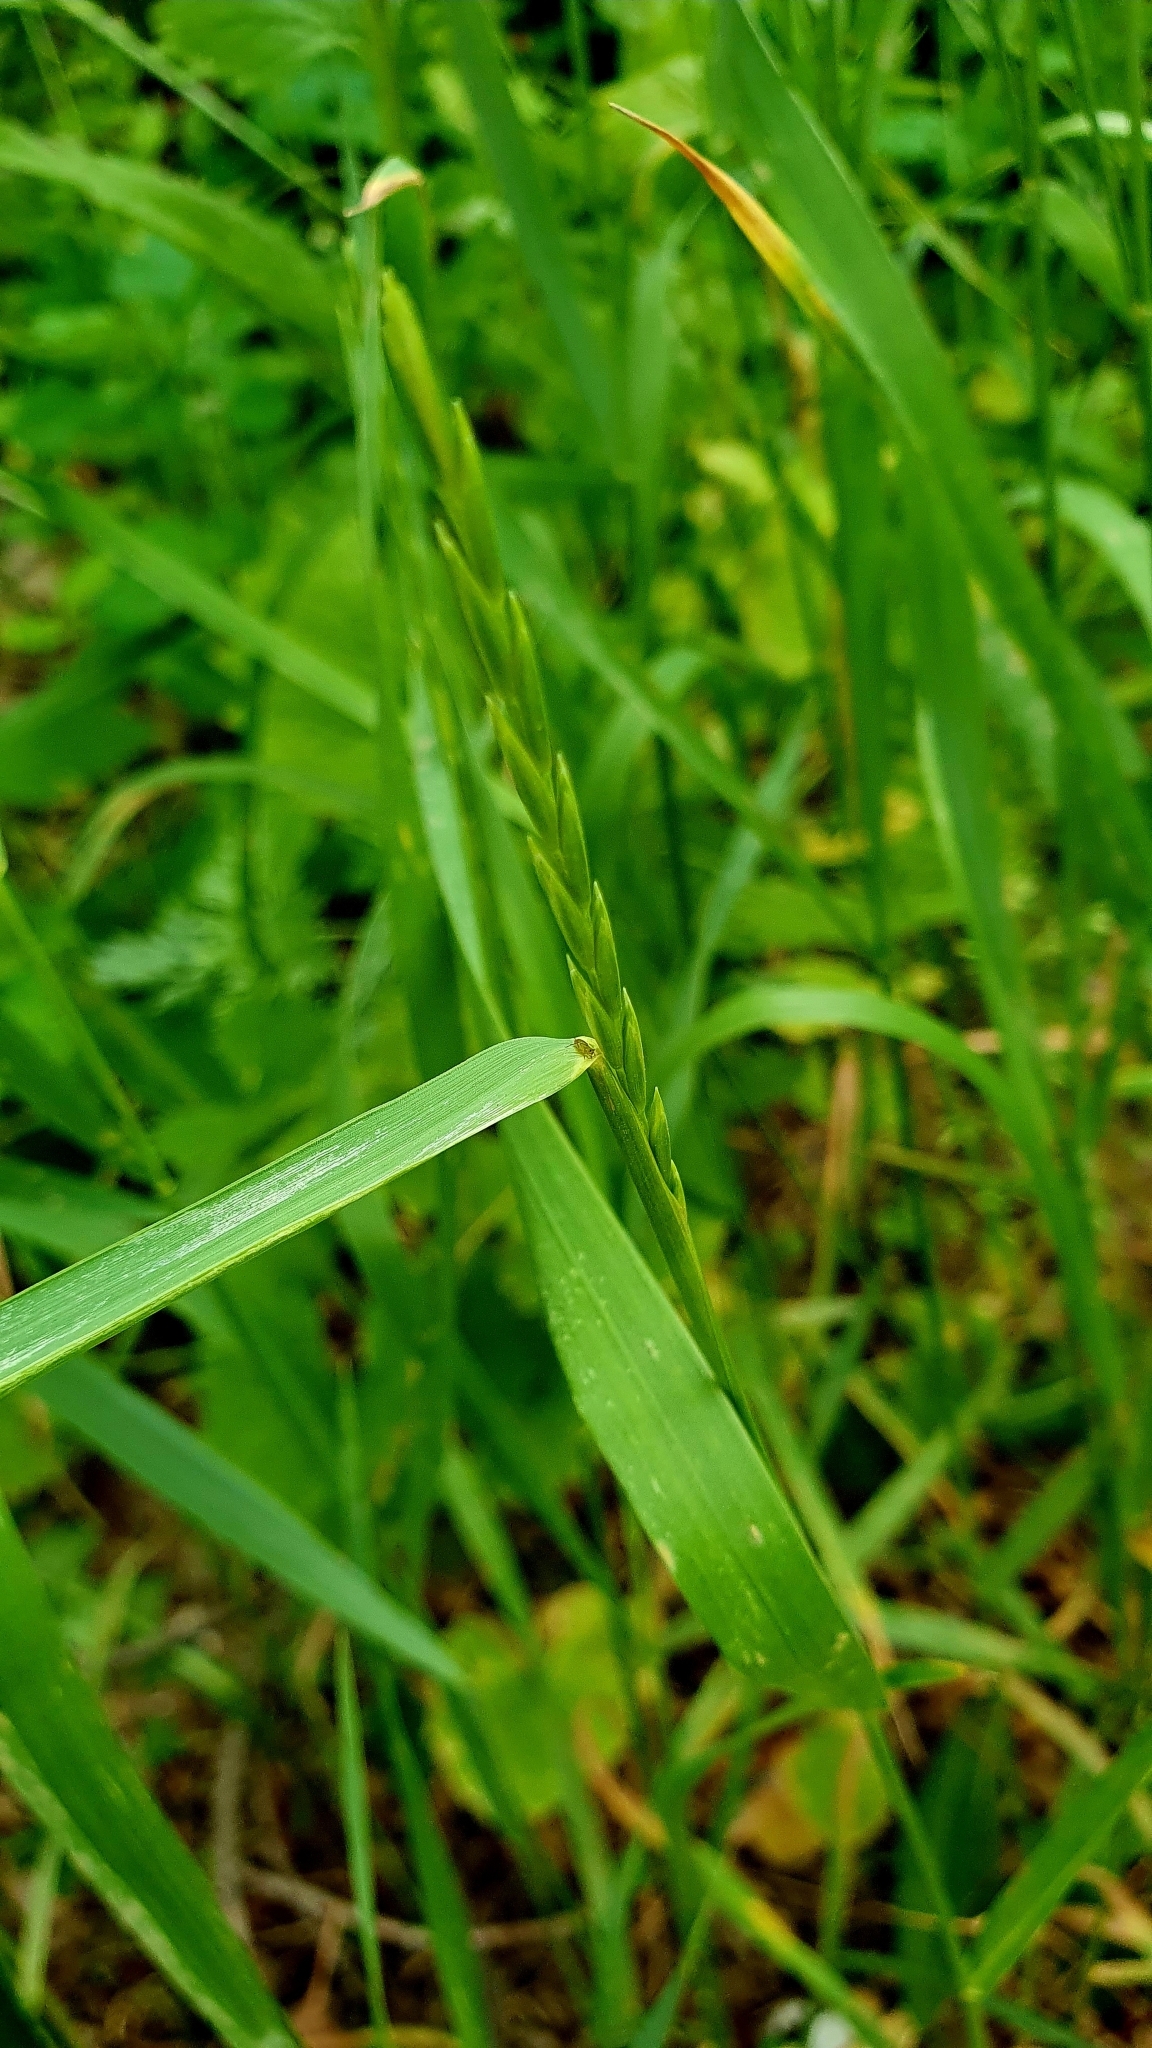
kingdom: Plantae
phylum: Tracheophyta
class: Liliopsida
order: Poales
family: Poaceae
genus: Elymus
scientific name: Elymus repens
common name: Quackgrass
